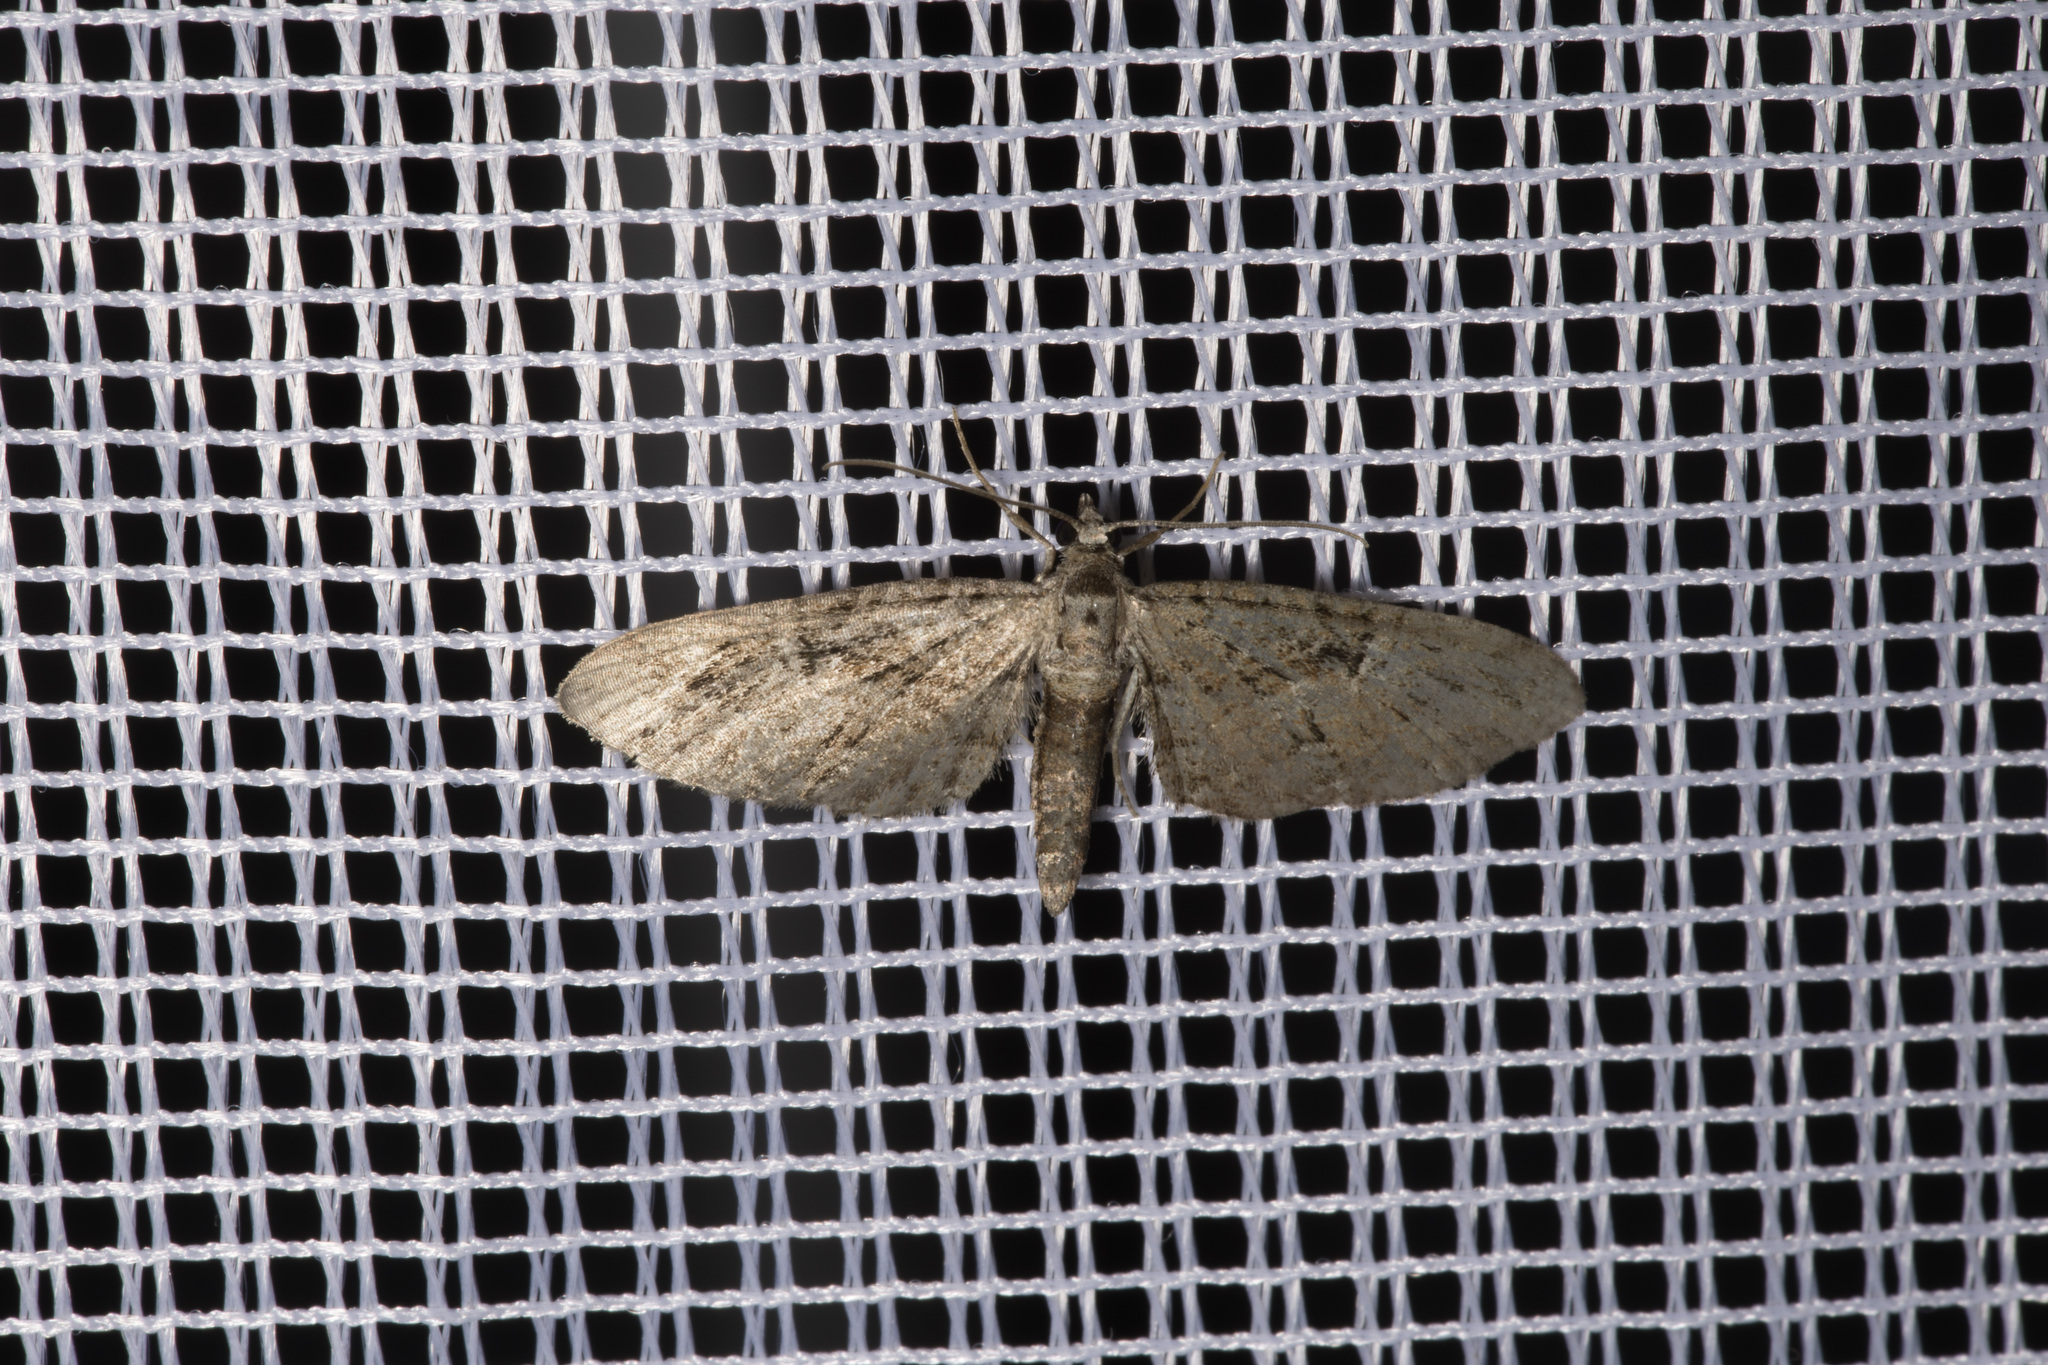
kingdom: Animalia
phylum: Arthropoda
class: Insecta
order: Lepidoptera
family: Geometridae
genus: Eupithecia
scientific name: Eupithecia pusillata
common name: Juniper pug
